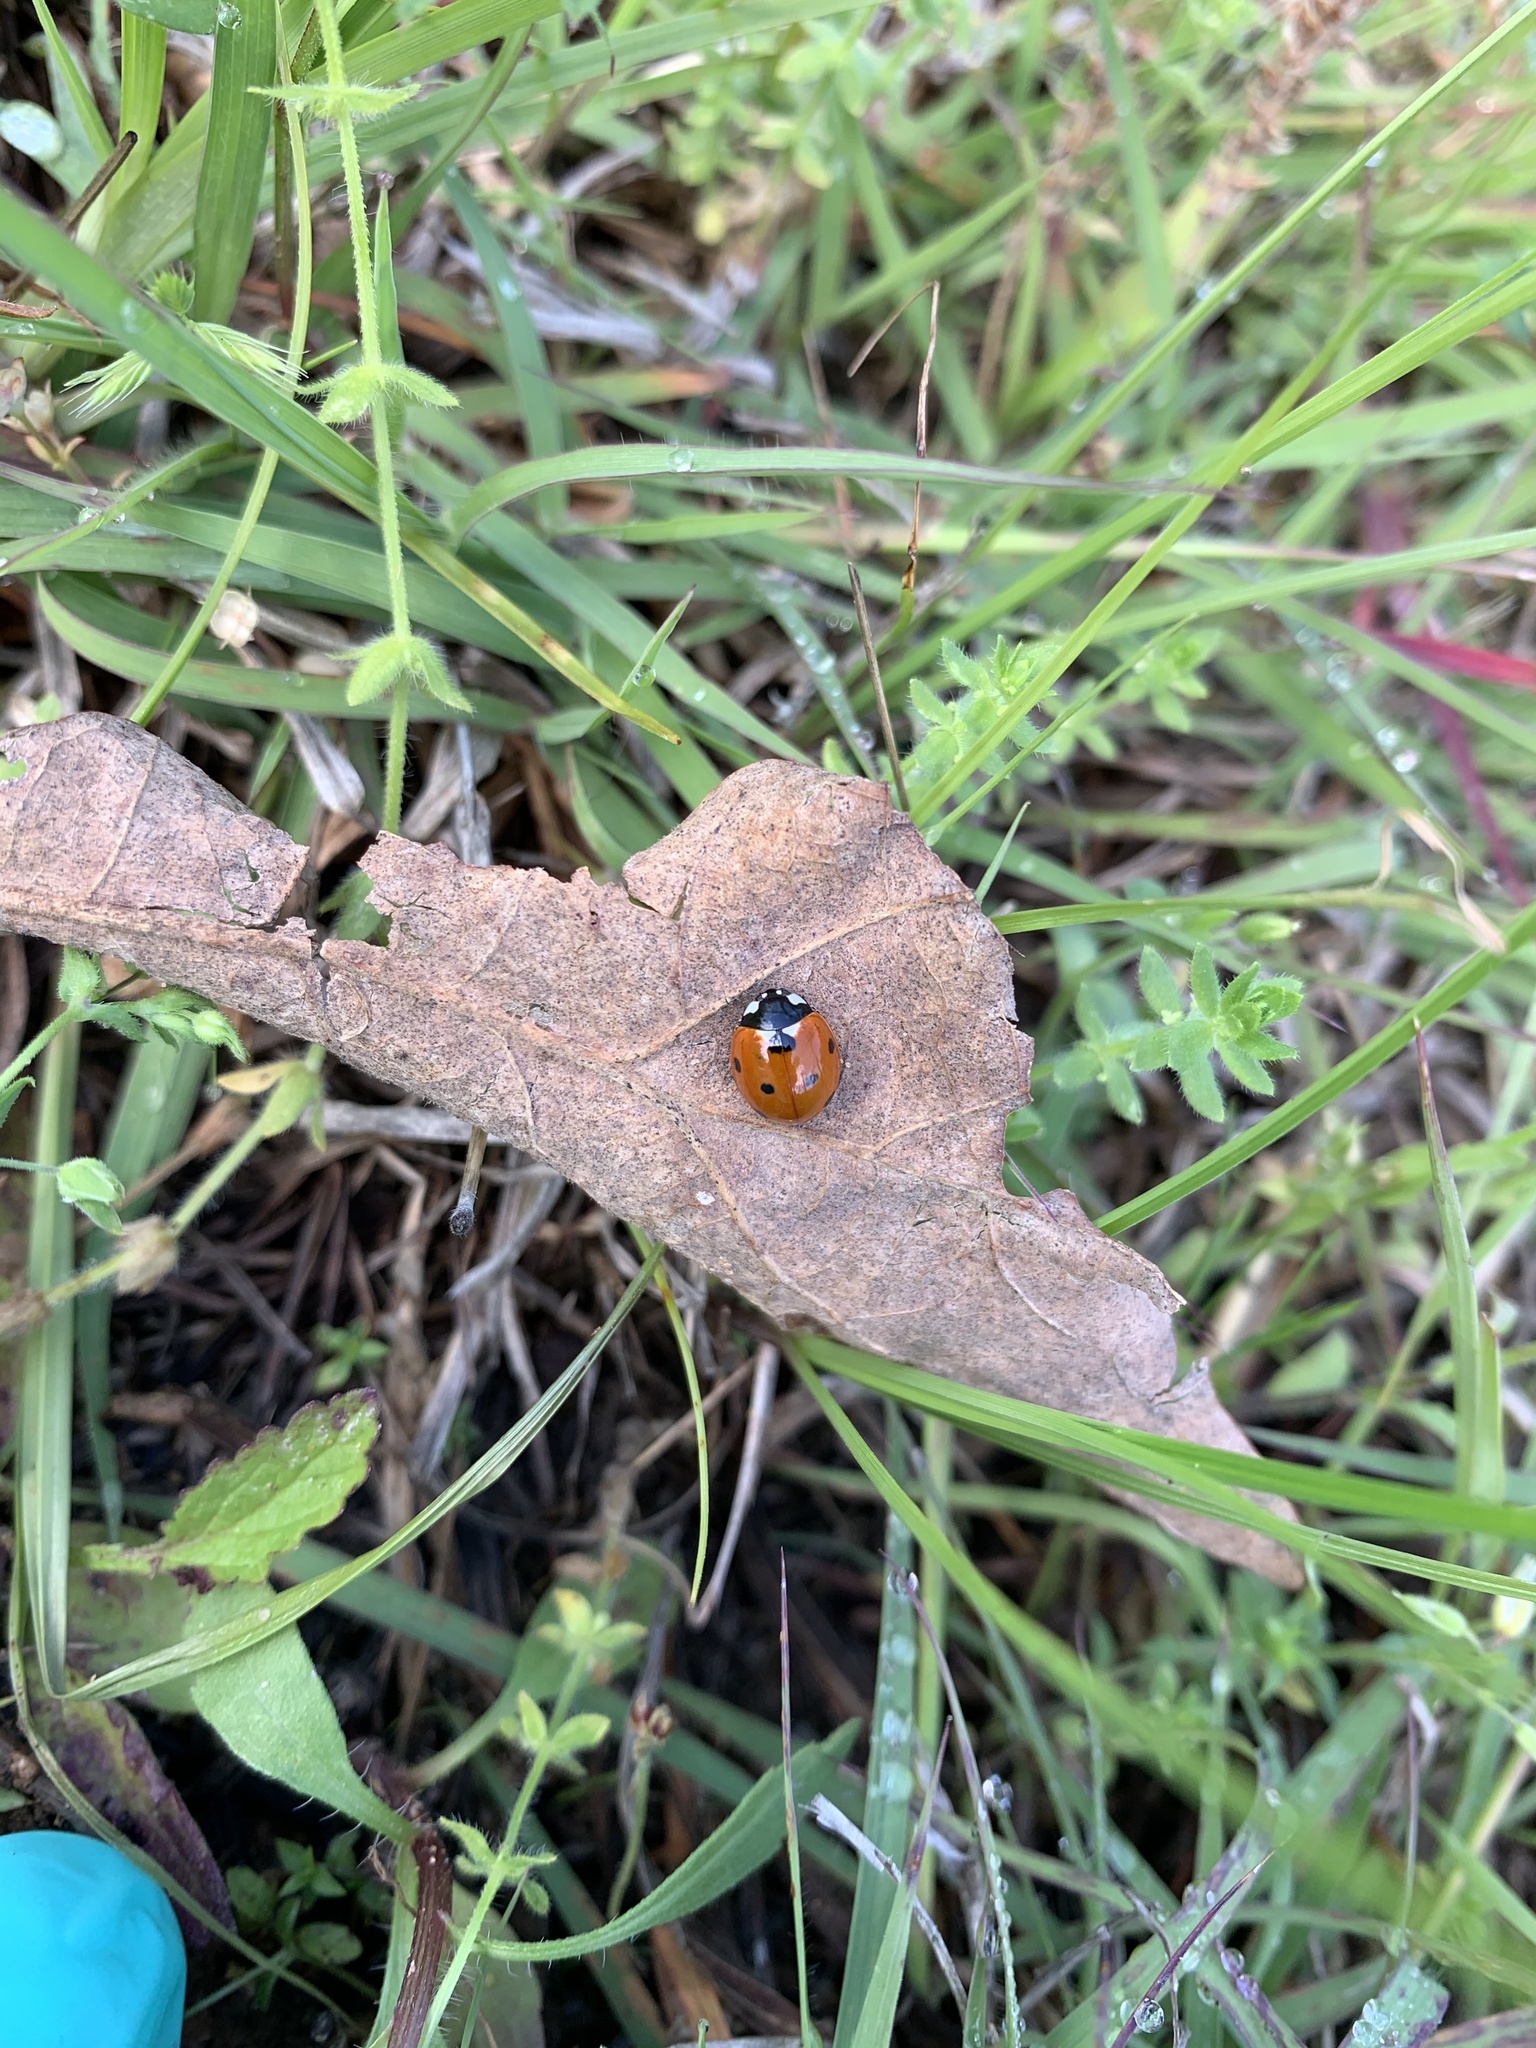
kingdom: Animalia
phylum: Arthropoda
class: Insecta
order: Coleoptera
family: Coccinellidae
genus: Coccinella
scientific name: Coccinella septempunctata
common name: Sevenspotted lady beetle
